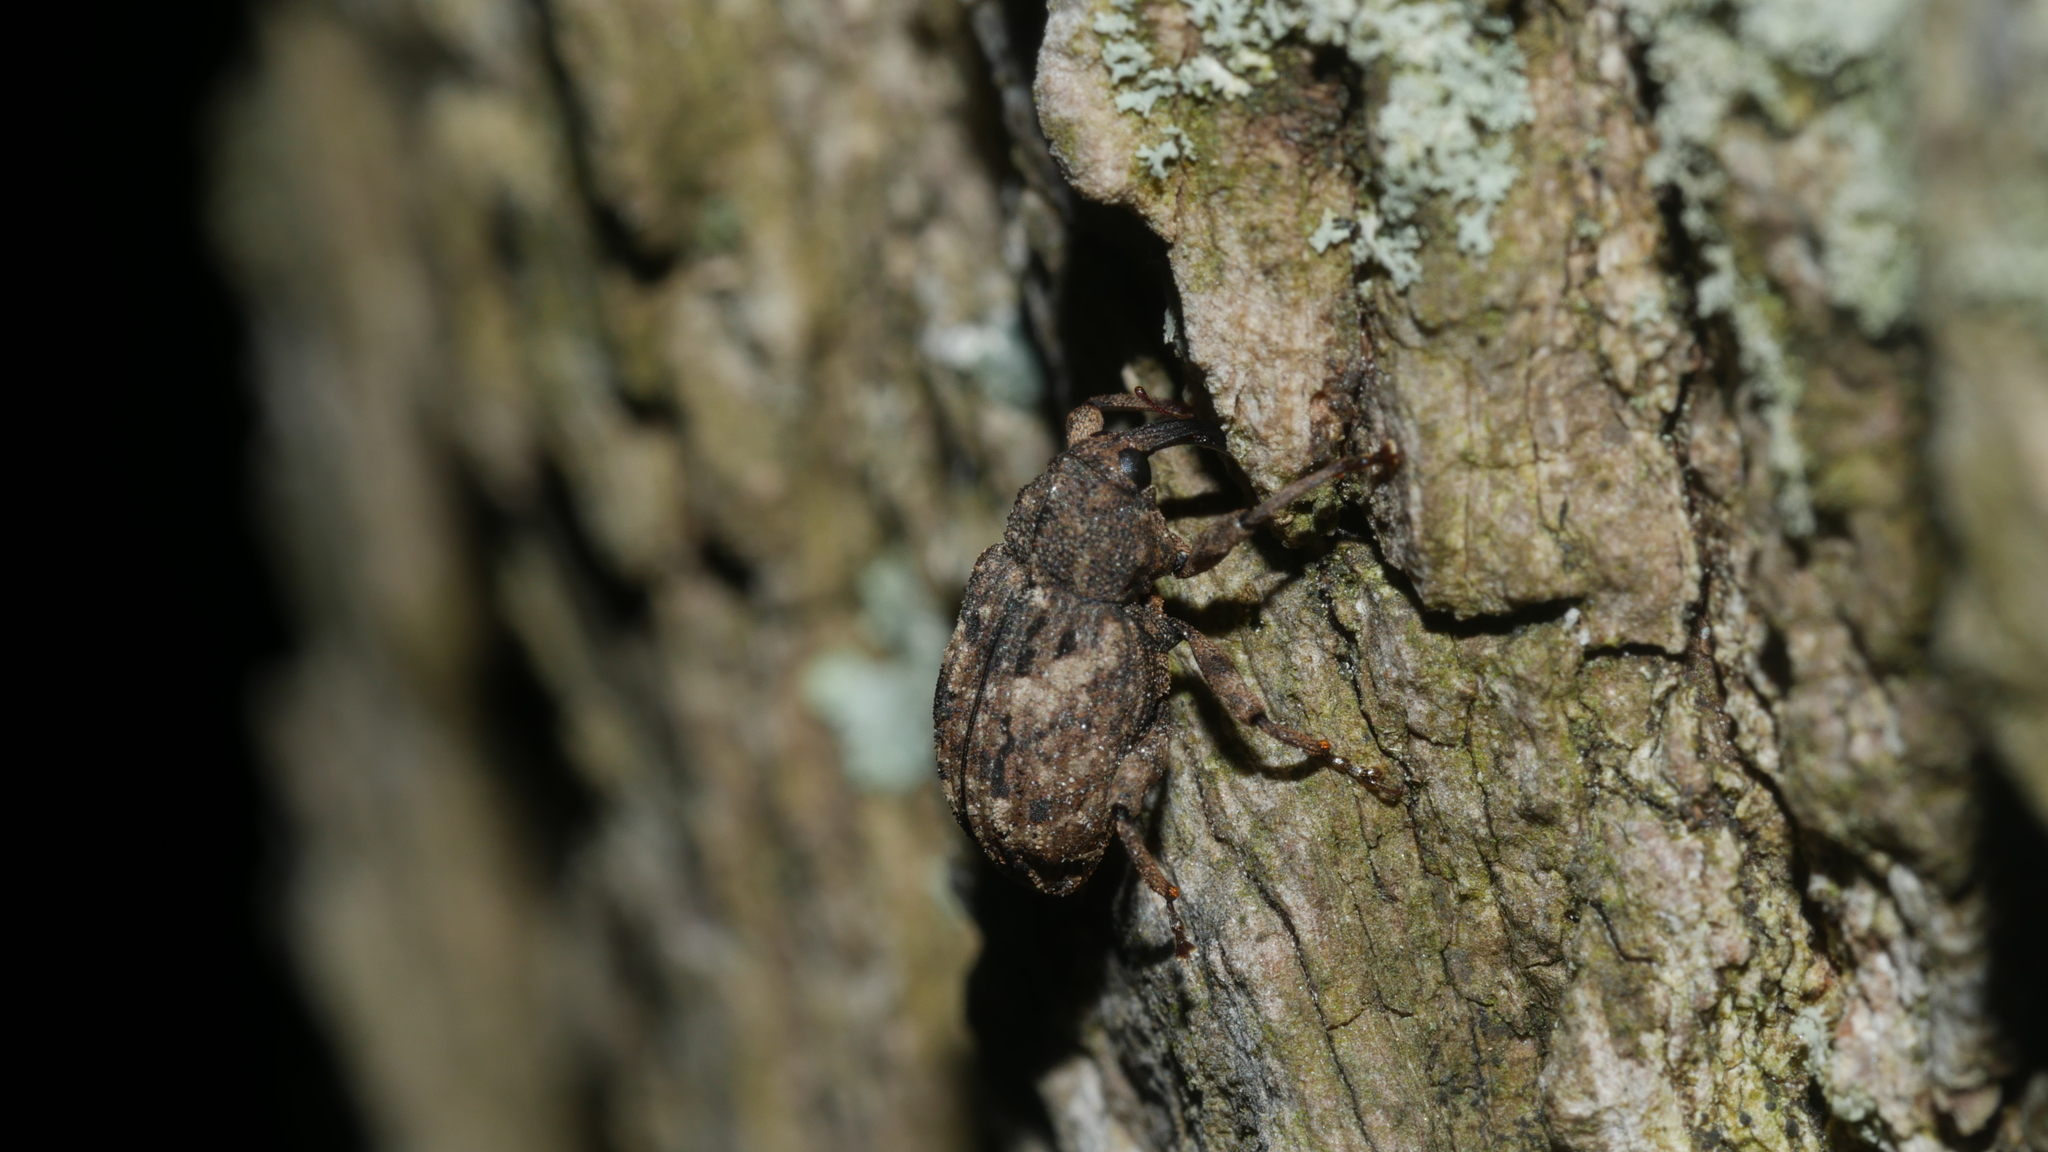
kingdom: Animalia
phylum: Arthropoda
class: Insecta
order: Coleoptera
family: Curculionidae
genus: Cryptorhynchus
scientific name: Cryptorhynchus fuscatus
